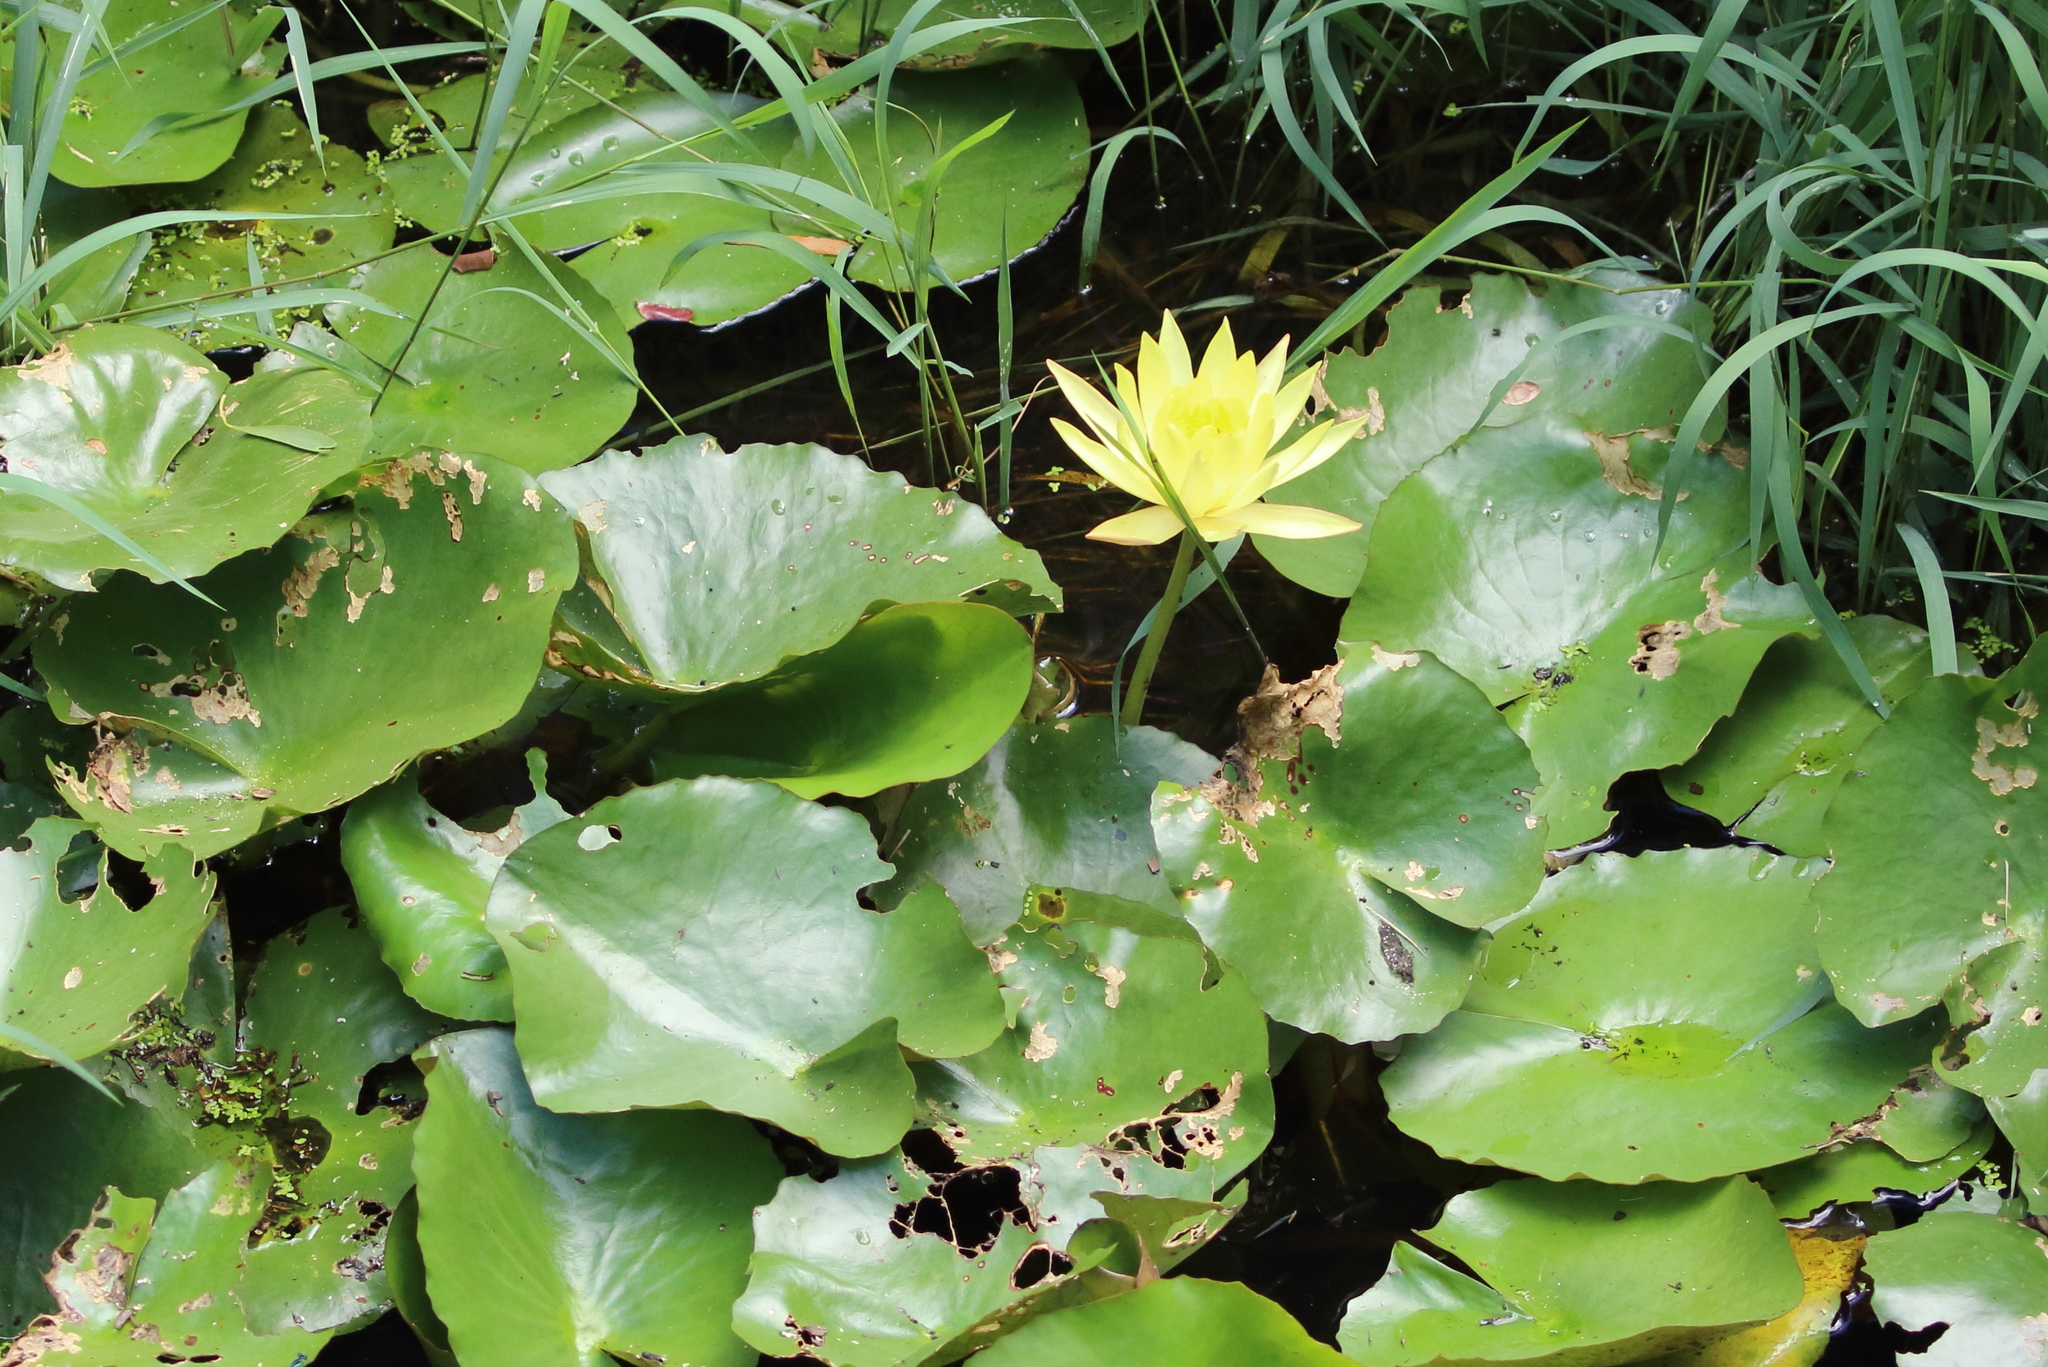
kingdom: Plantae
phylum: Tracheophyta
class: Magnoliopsida
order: Nymphaeales
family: Nymphaeaceae
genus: Nymphaea
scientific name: Nymphaea mexicana
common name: Banana water-lily
